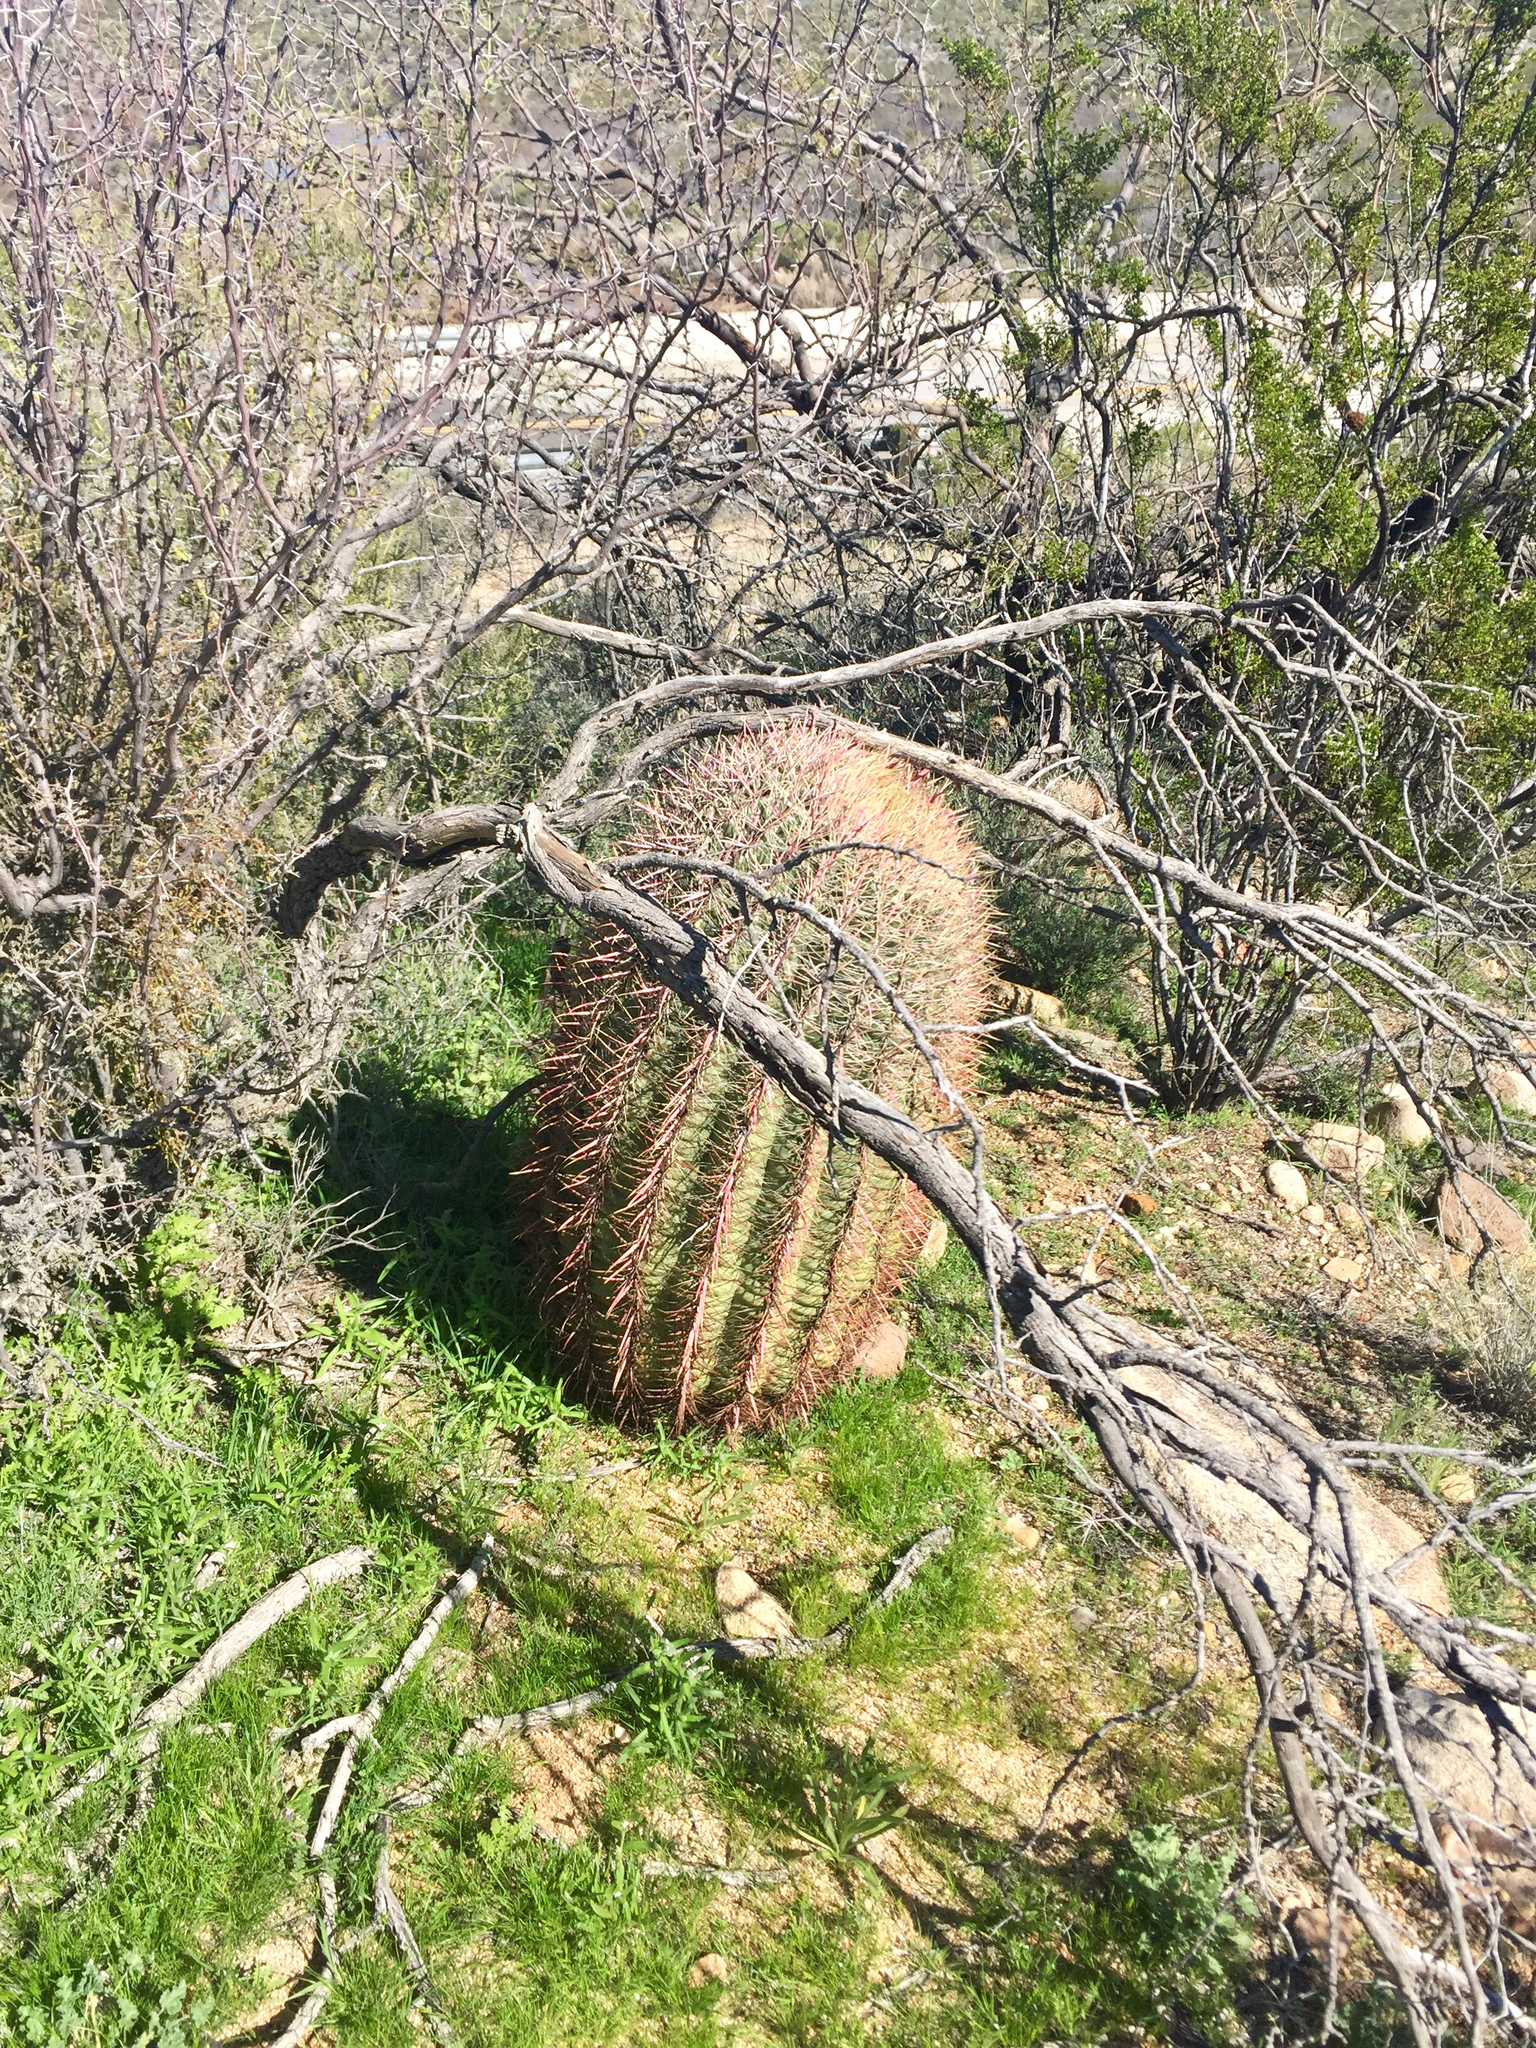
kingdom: Plantae
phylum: Tracheophyta
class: Magnoliopsida
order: Caryophyllales
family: Cactaceae
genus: Ferocactus
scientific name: Ferocactus cylindraceus
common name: California barrel cactus
